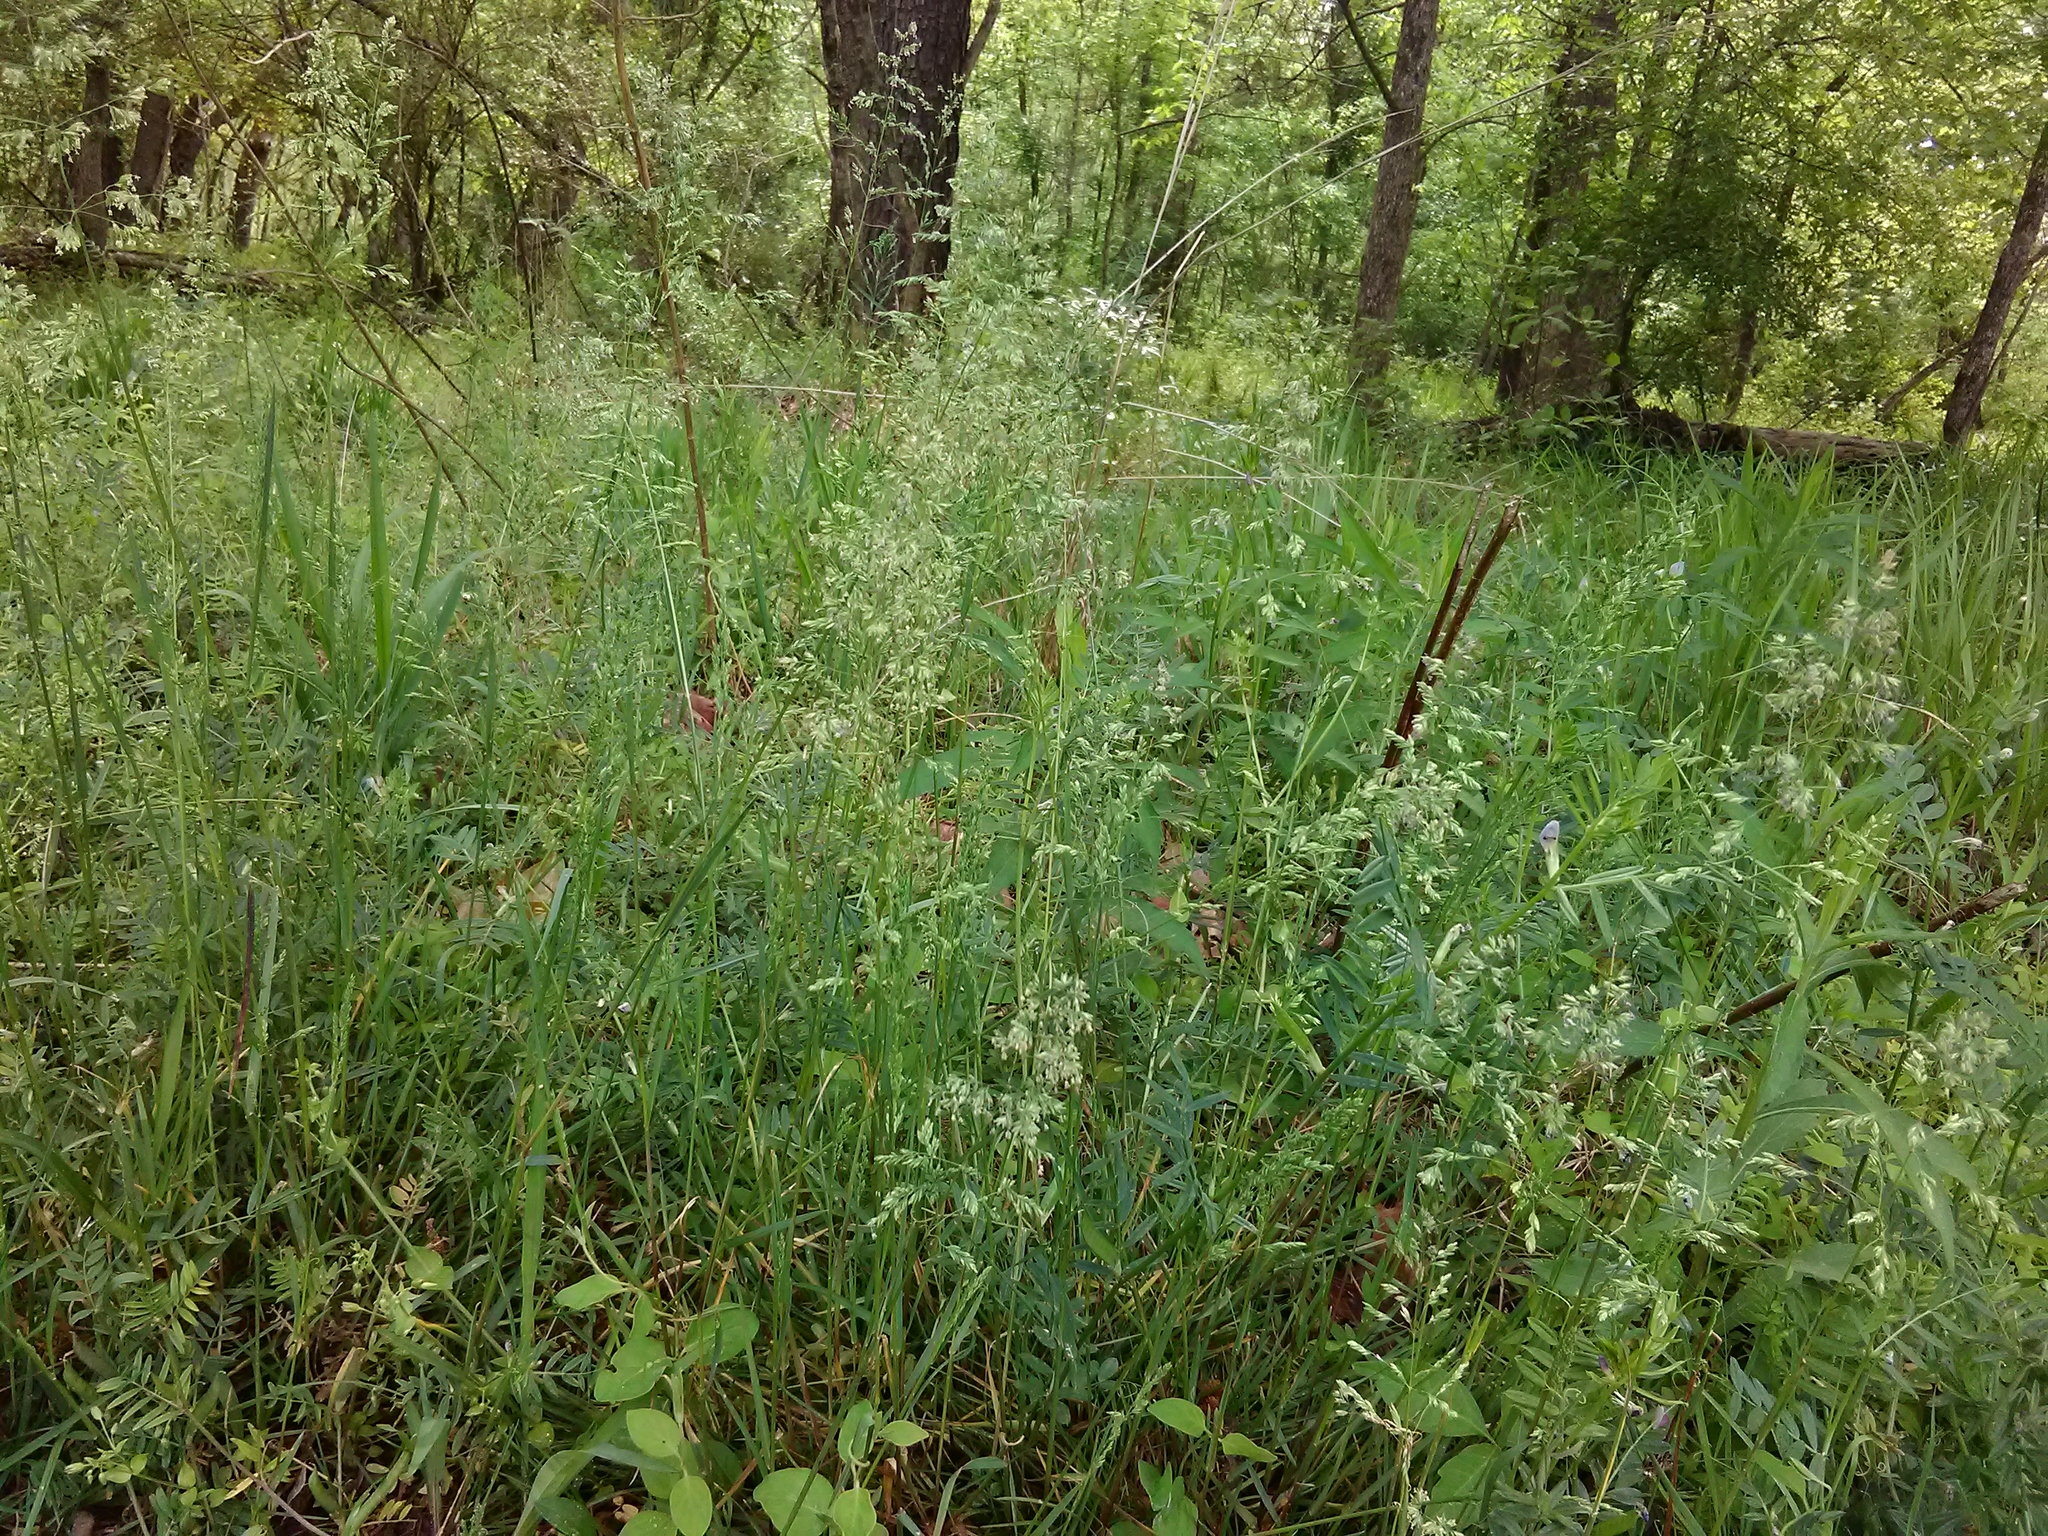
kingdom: Plantae
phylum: Tracheophyta
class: Liliopsida
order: Poales
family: Poaceae
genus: Poa
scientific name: Poa annua
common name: Annual bluegrass
